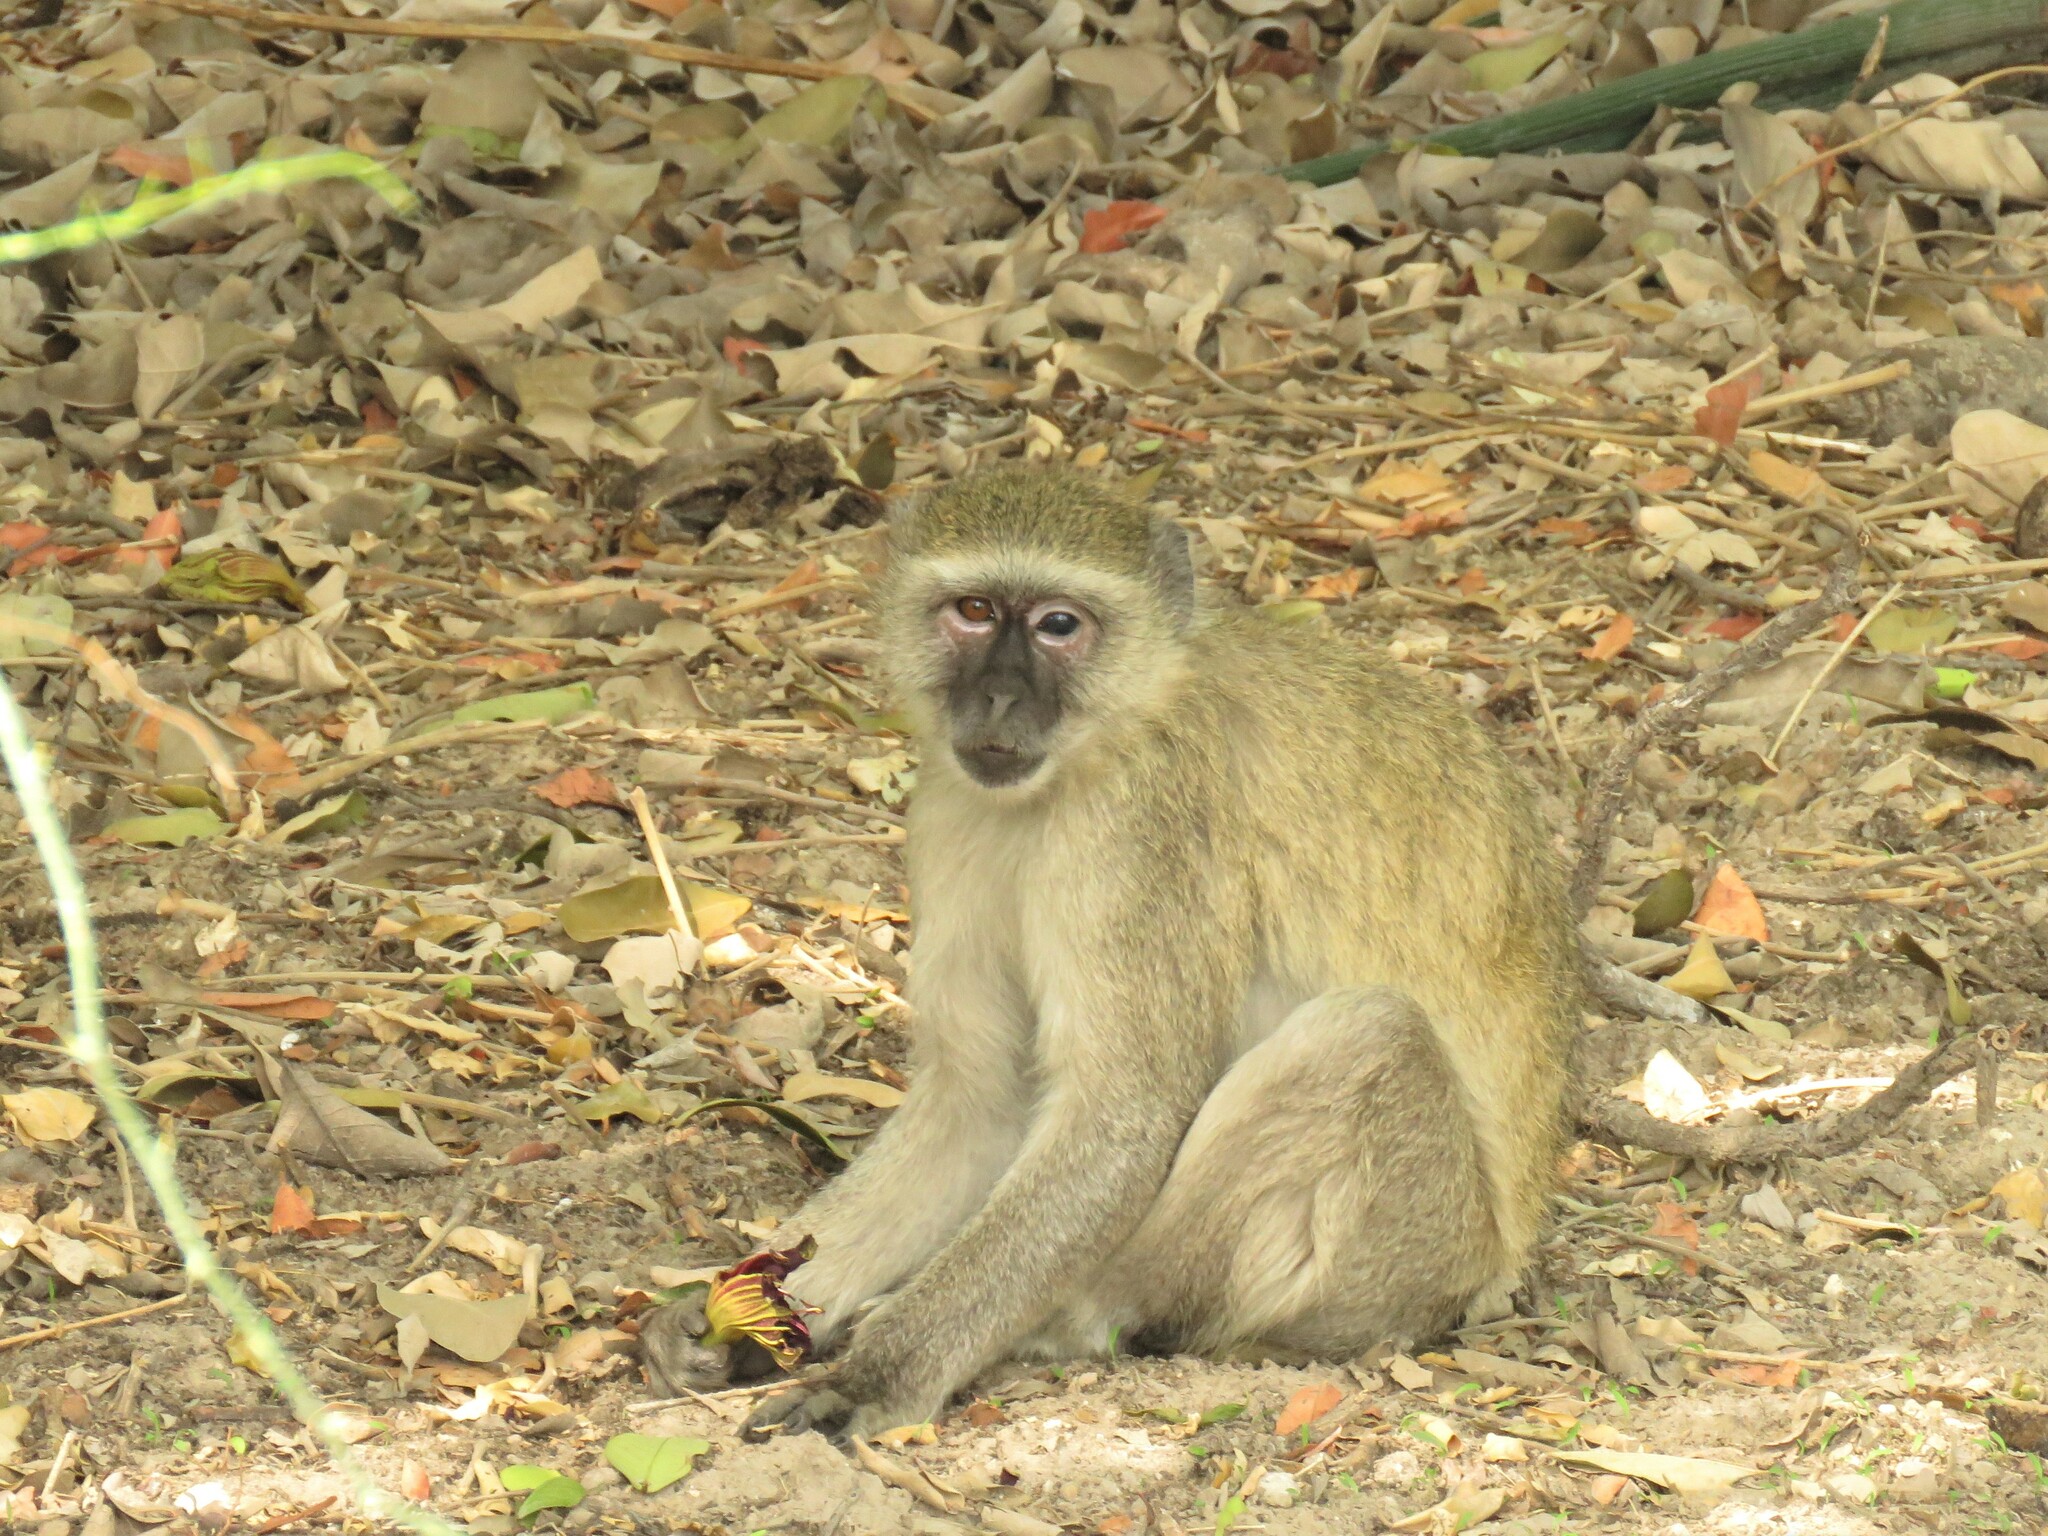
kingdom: Animalia
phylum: Chordata
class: Mammalia
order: Primates
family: Cercopithecidae
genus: Chlorocebus
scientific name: Chlorocebus cynosuros
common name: Malbrouck
